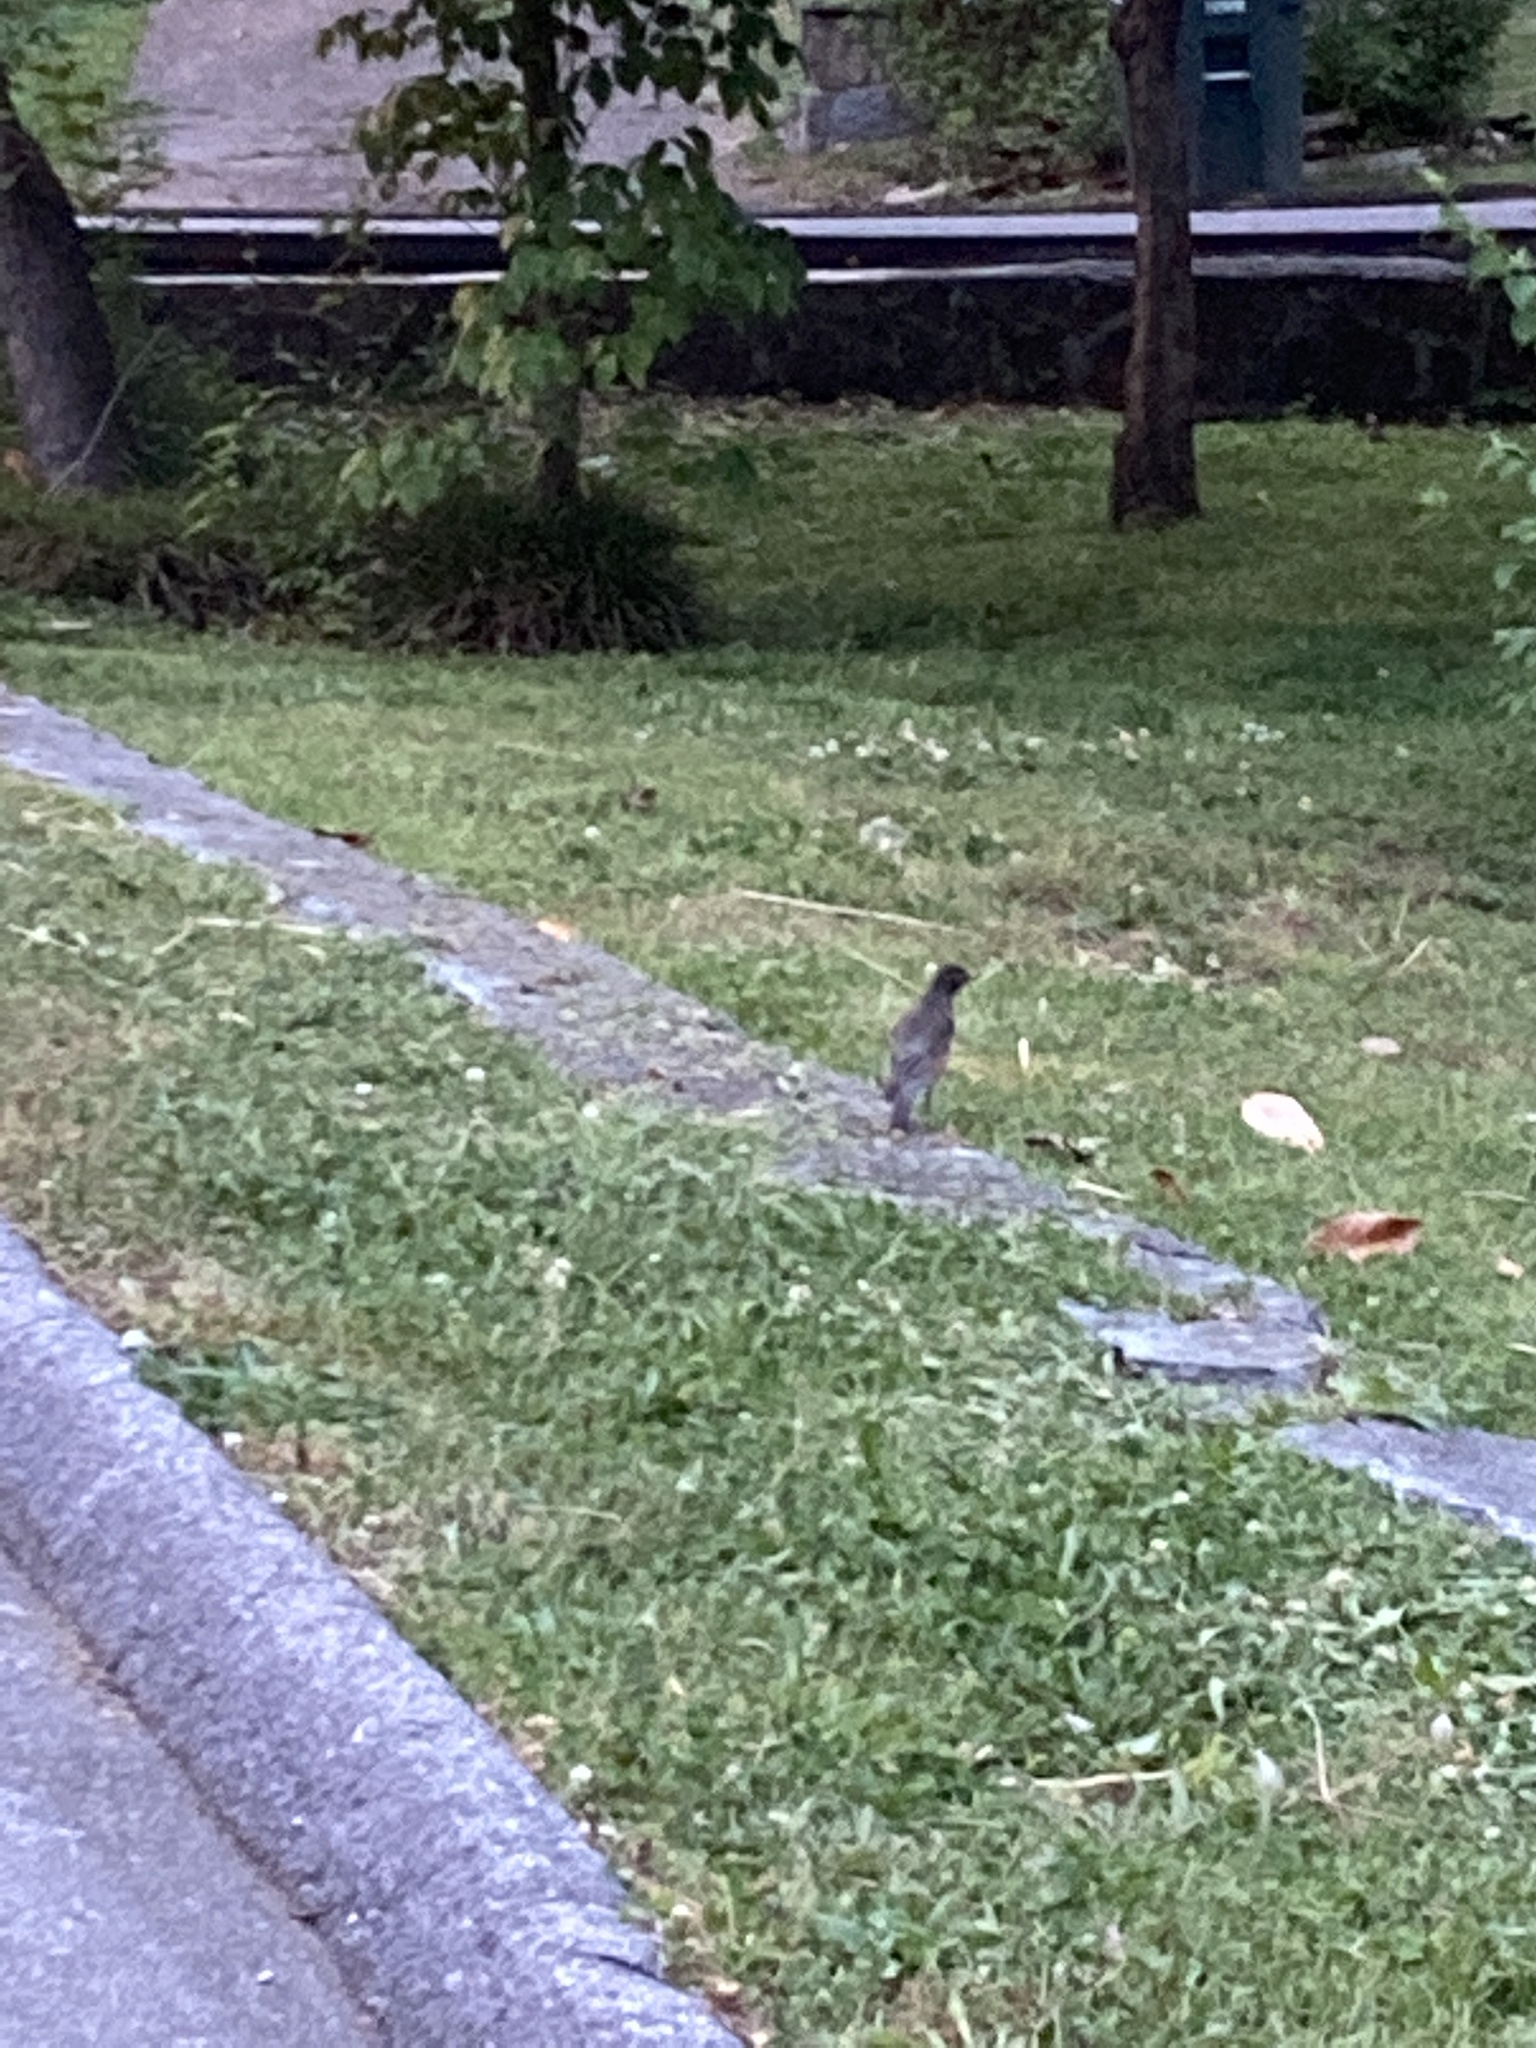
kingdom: Animalia
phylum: Chordata
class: Aves
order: Passeriformes
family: Turdidae
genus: Turdus
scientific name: Turdus migratorius
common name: American robin
